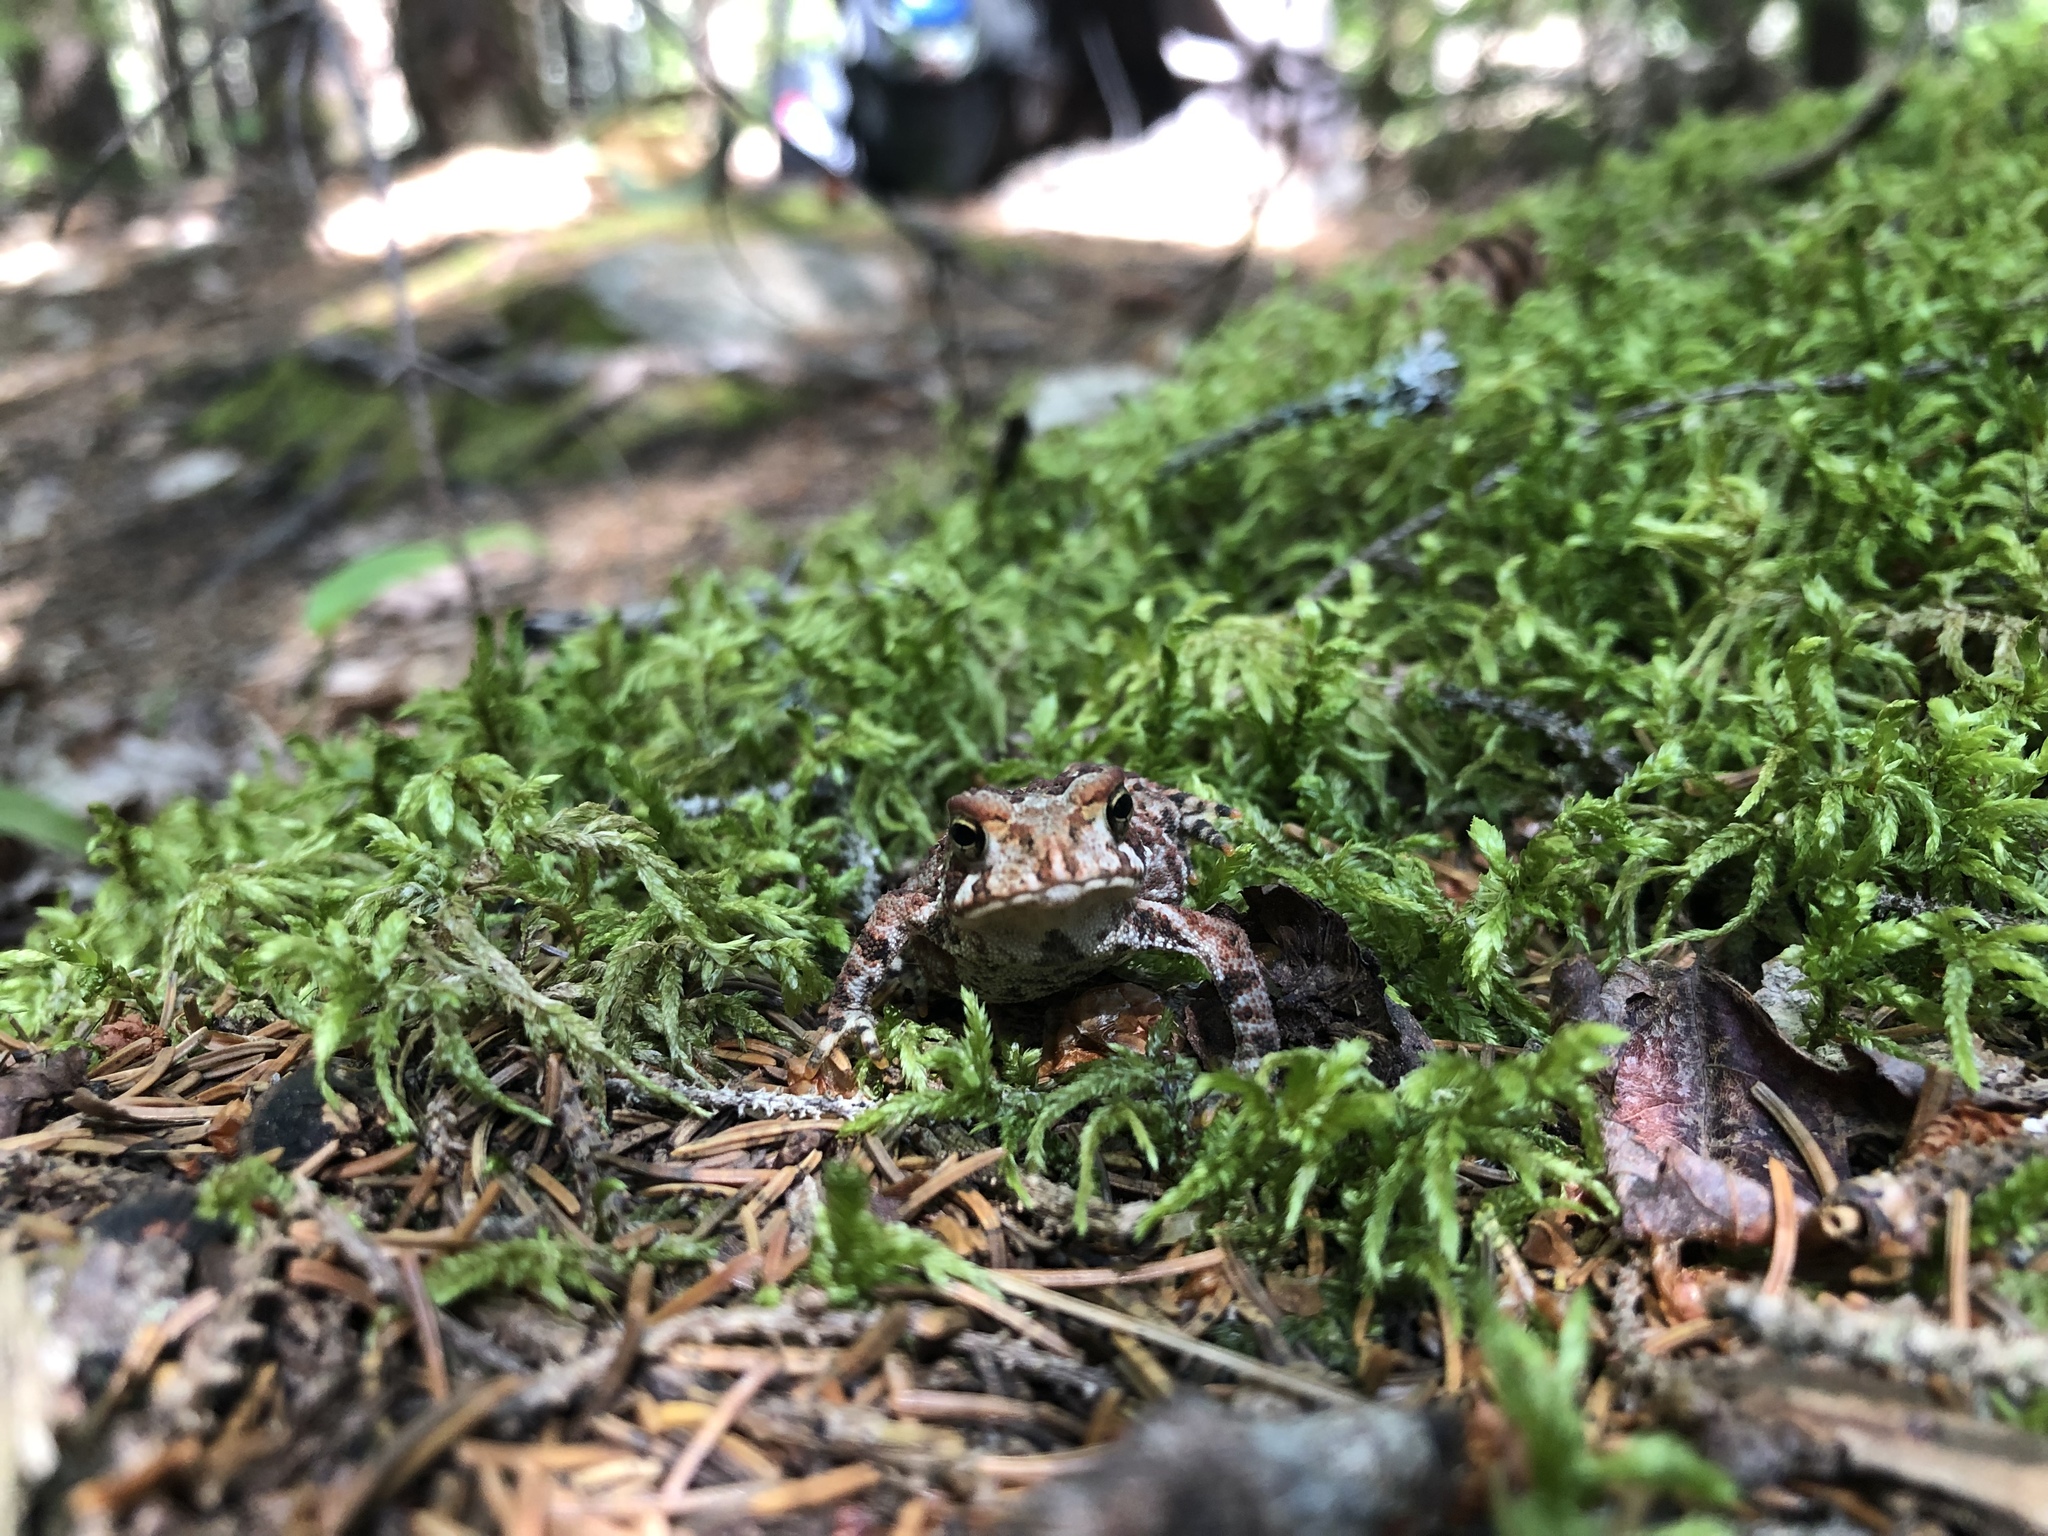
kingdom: Animalia
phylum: Chordata
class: Amphibia
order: Anura
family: Bufonidae
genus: Anaxyrus
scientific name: Anaxyrus americanus
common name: American toad
